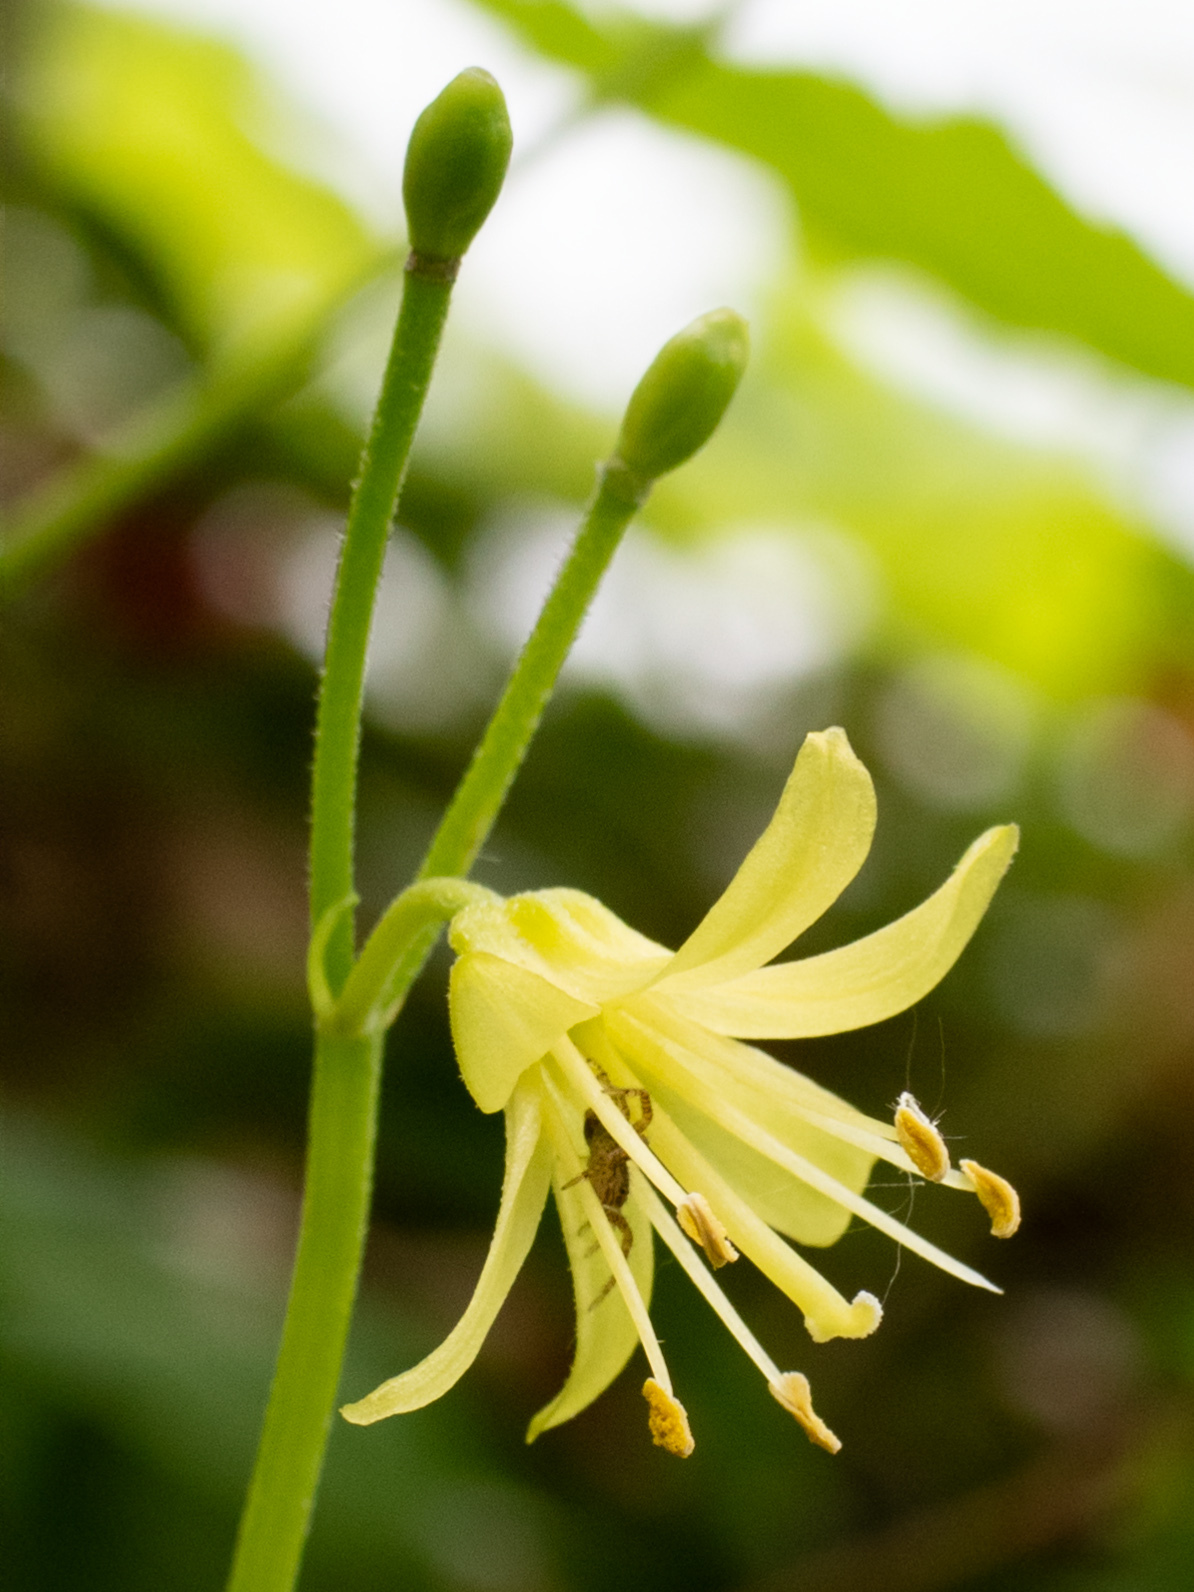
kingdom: Plantae
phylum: Tracheophyta
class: Liliopsida
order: Liliales
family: Liliaceae
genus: Clintonia
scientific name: Clintonia borealis
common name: Yellow clintonia
